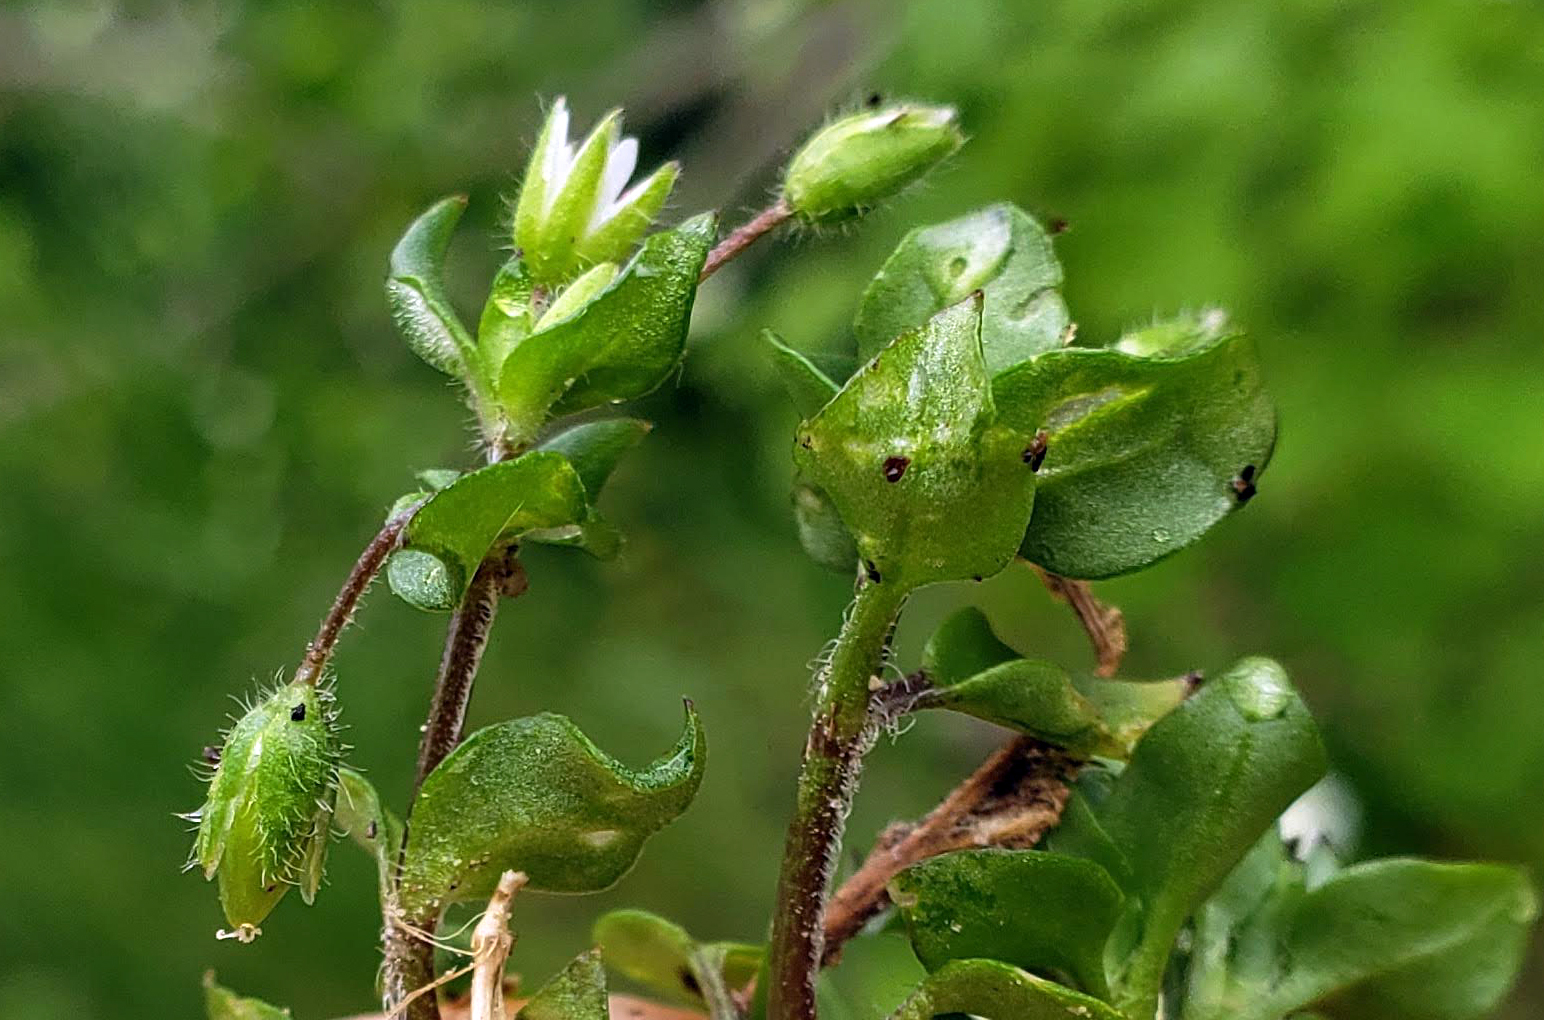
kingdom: Plantae
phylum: Tracheophyta
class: Magnoliopsida
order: Caryophyllales
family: Caryophyllaceae
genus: Stellaria
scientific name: Stellaria media
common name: Common chickweed
